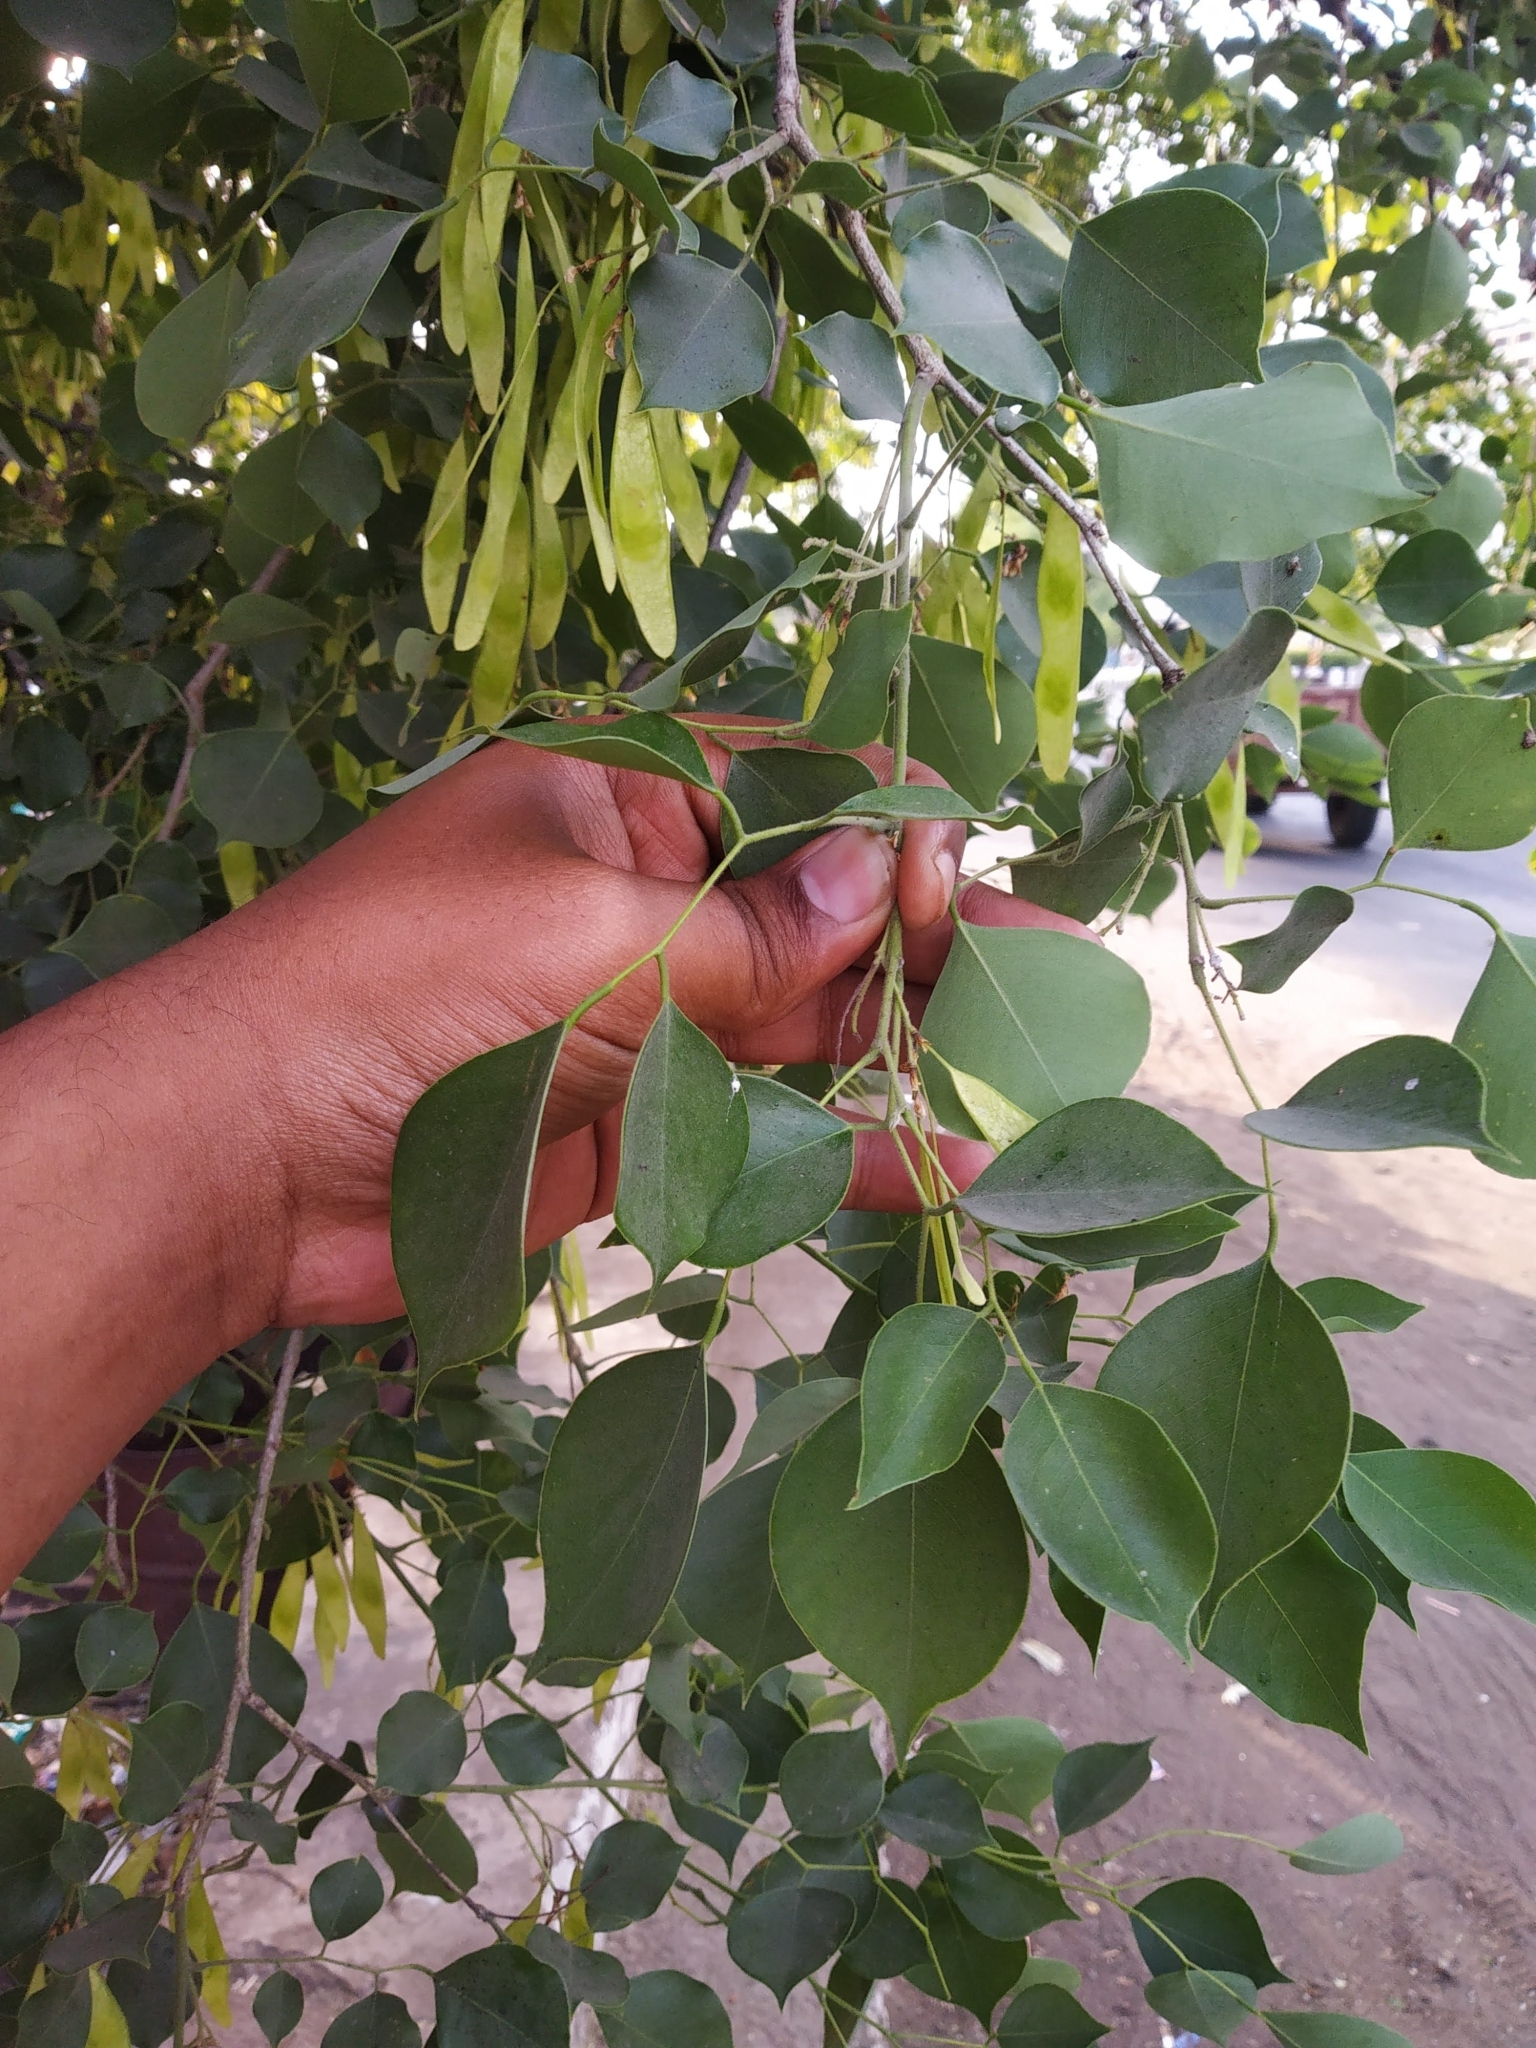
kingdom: Plantae
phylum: Tracheophyta
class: Magnoliopsida
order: Fabales
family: Fabaceae
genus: Dalbergia
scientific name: Dalbergia sissoo
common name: Indian rosewood
